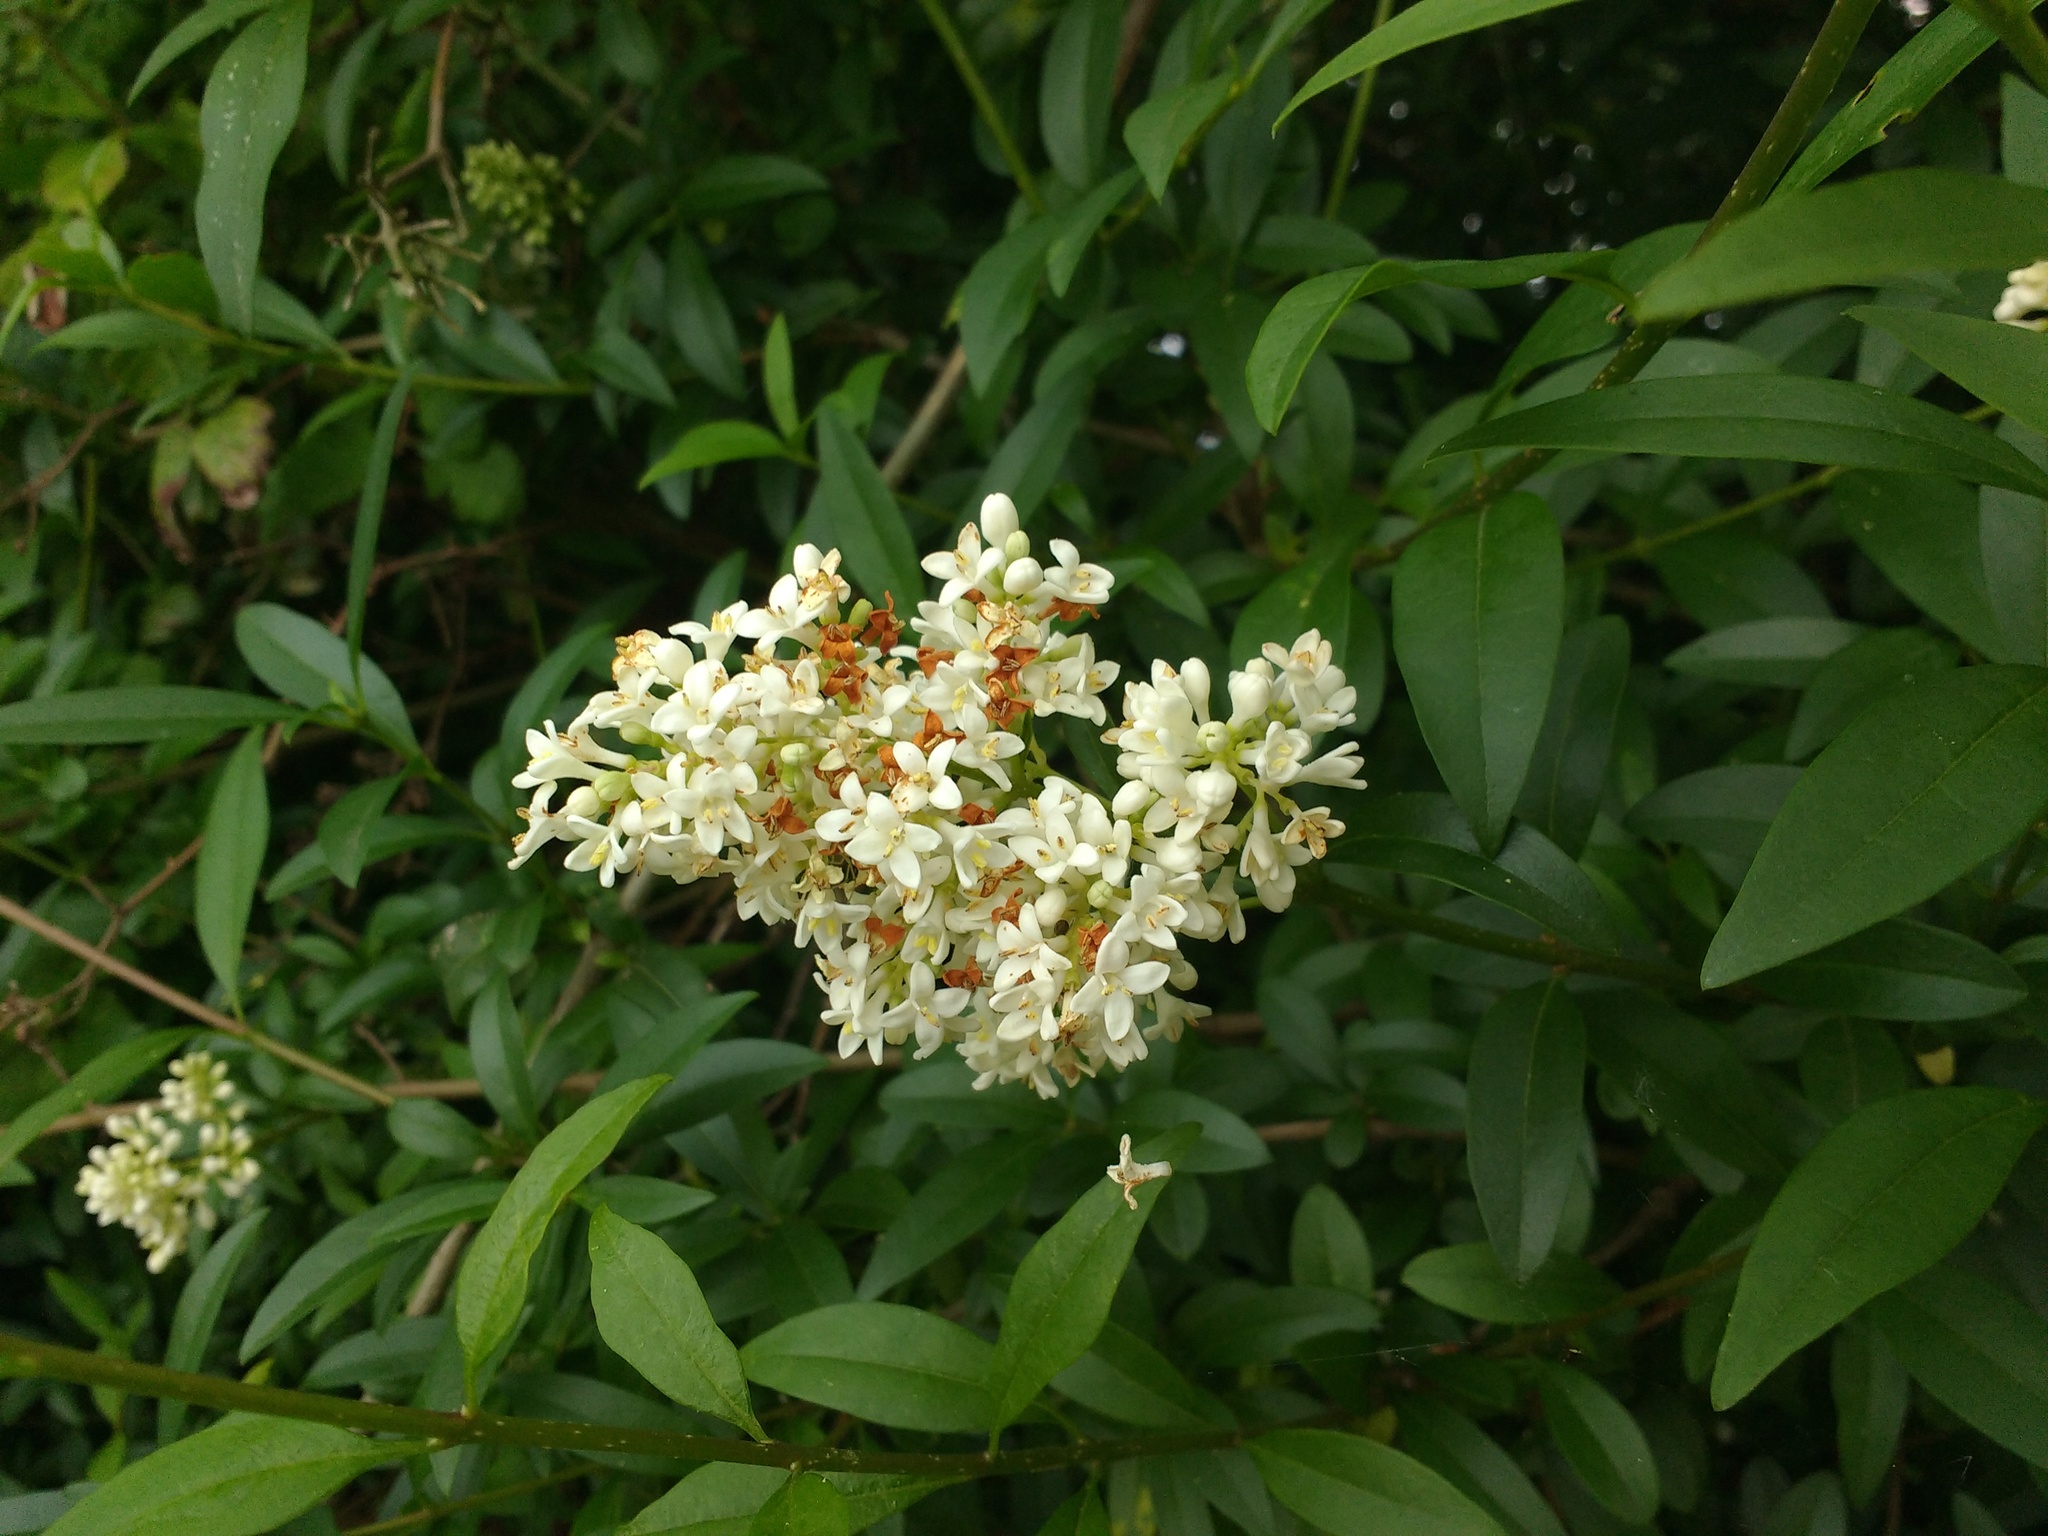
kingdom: Plantae
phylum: Tracheophyta
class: Magnoliopsida
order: Lamiales
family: Oleaceae
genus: Ligustrum
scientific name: Ligustrum vulgare
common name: Wild privet
